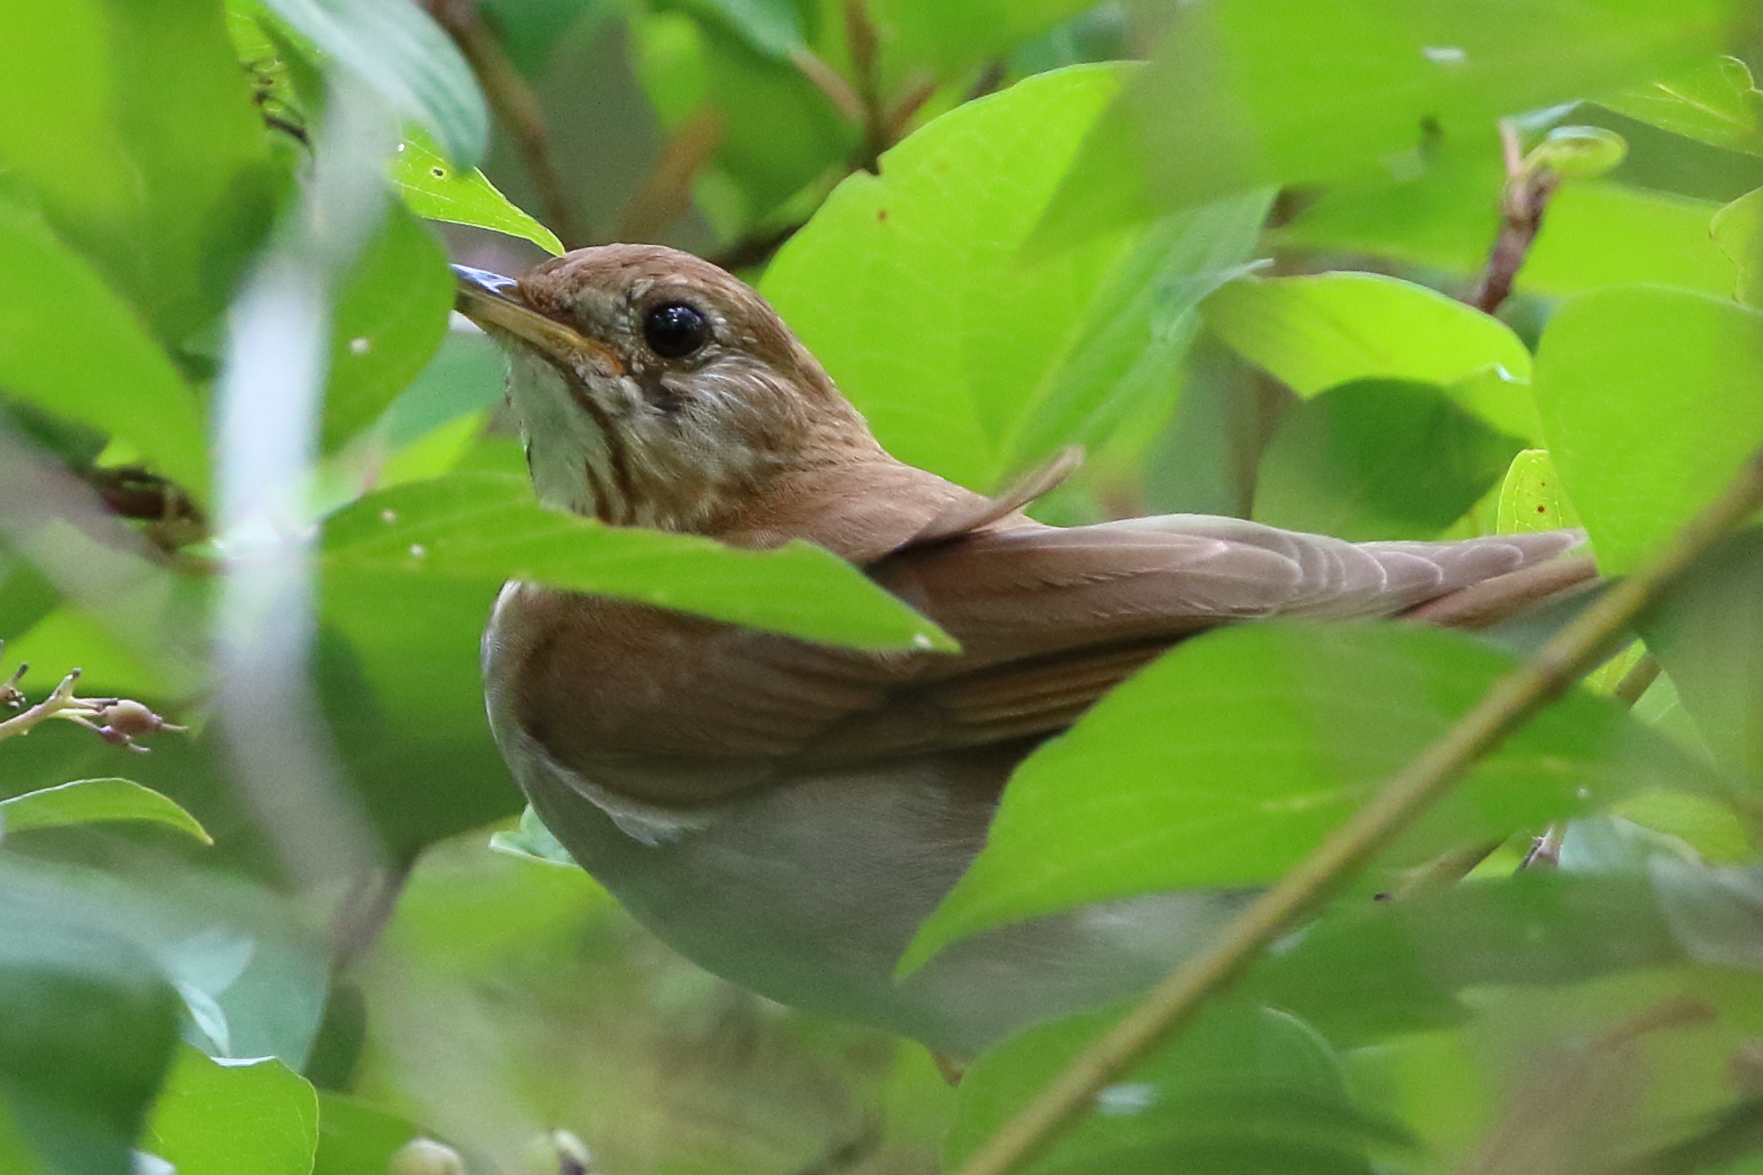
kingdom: Animalia
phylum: Chordata
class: Aves
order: Passeriformes
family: Turdidae
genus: Catharus
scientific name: Catharus fuscescens
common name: Veery
